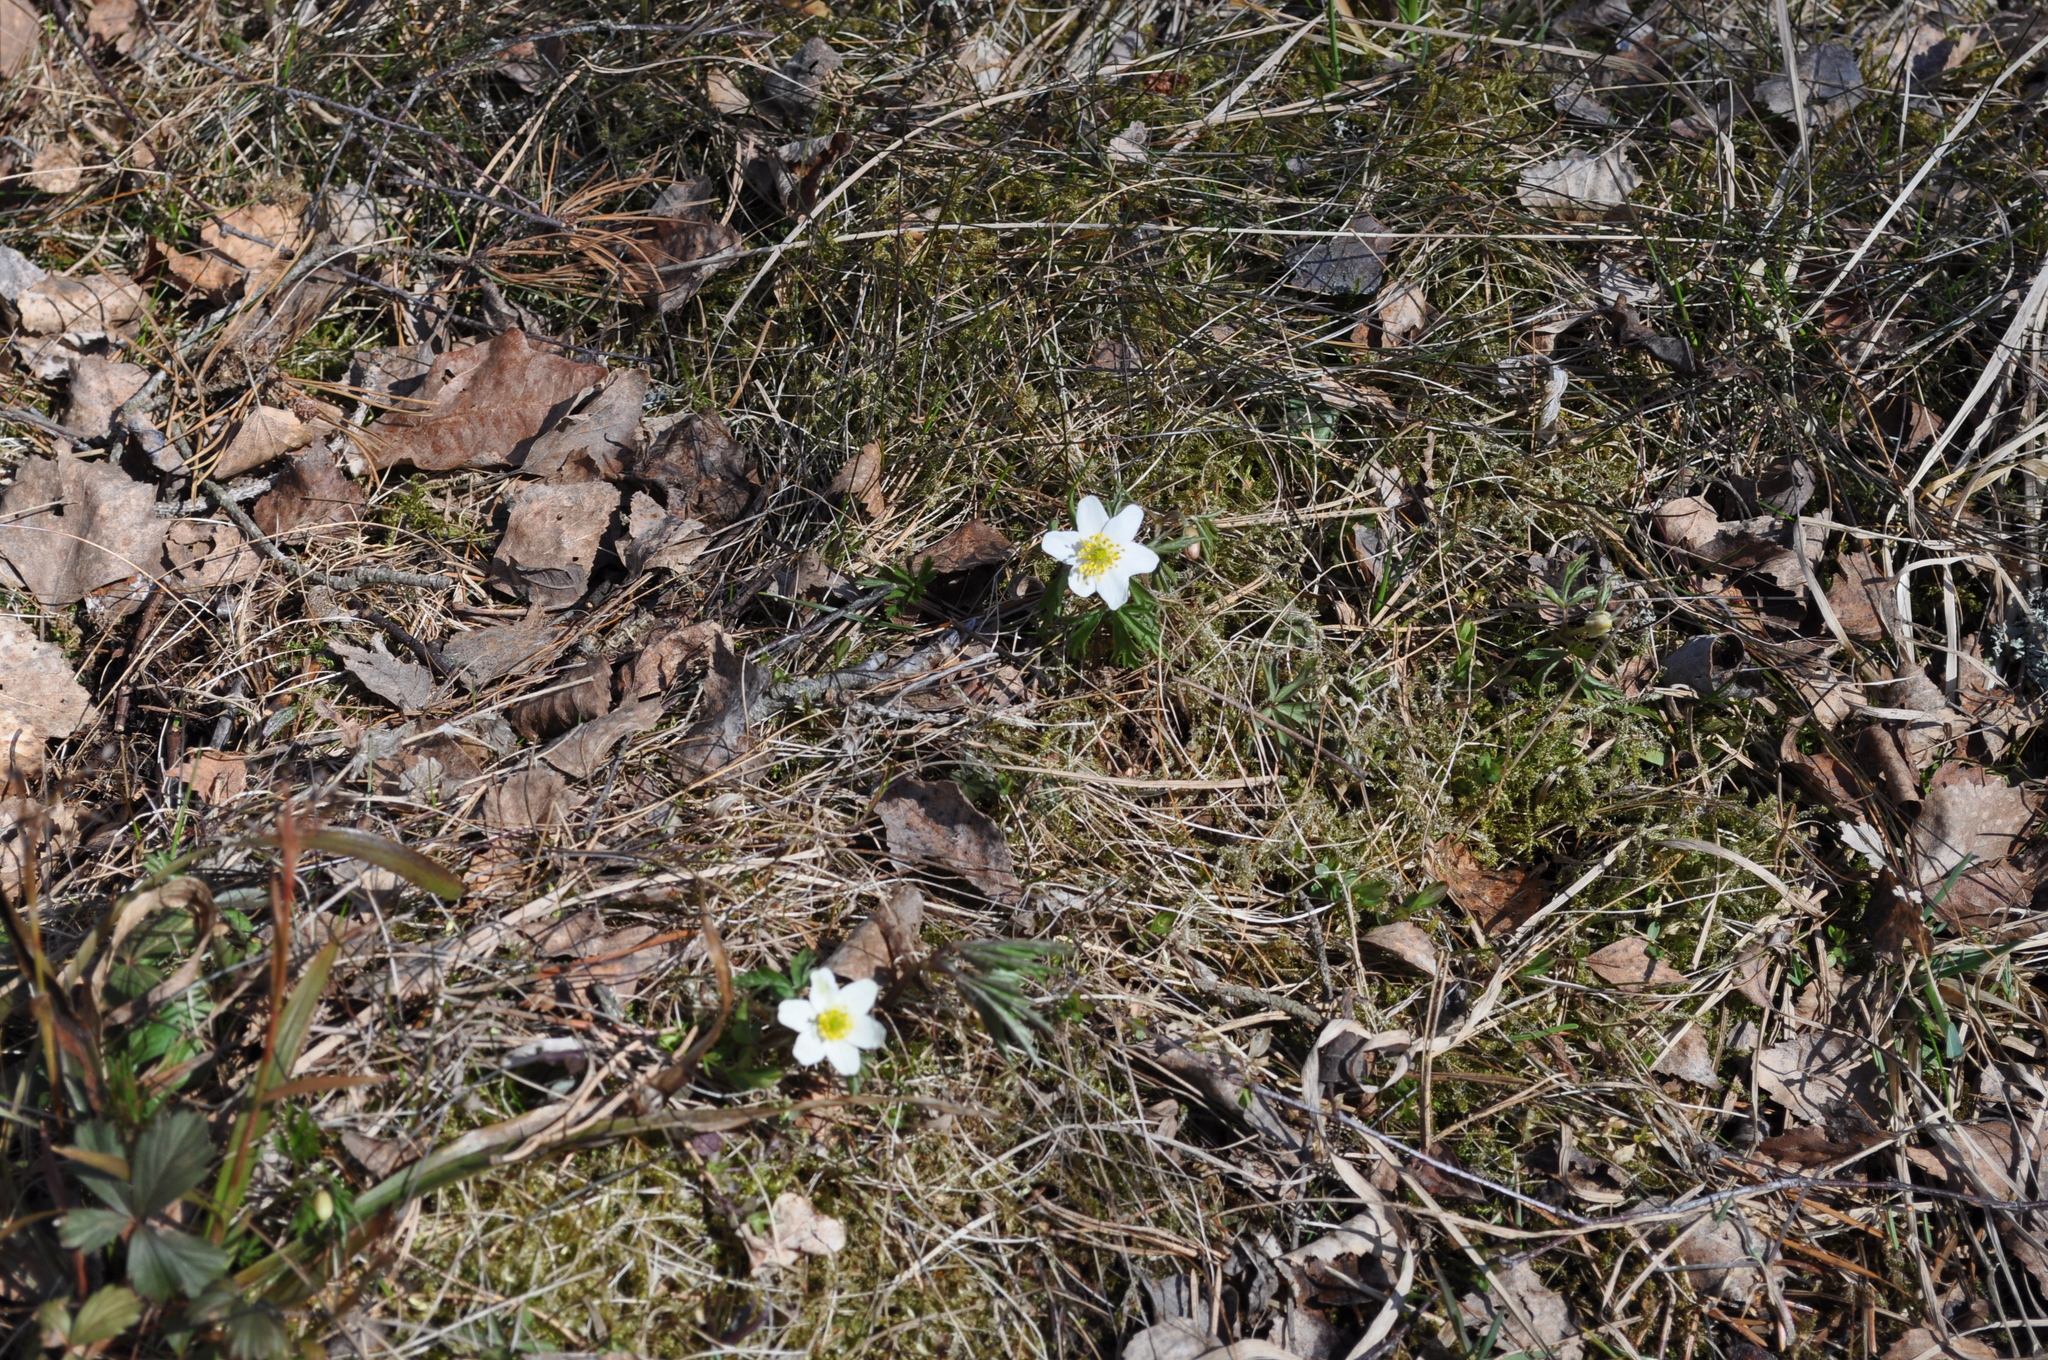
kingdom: Plantae
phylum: Tracheophyta
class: Magnoliopsida
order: Ranunculales
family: Ranunculaceae
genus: Anemone
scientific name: Anemone nemorosa
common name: Wood anemone
